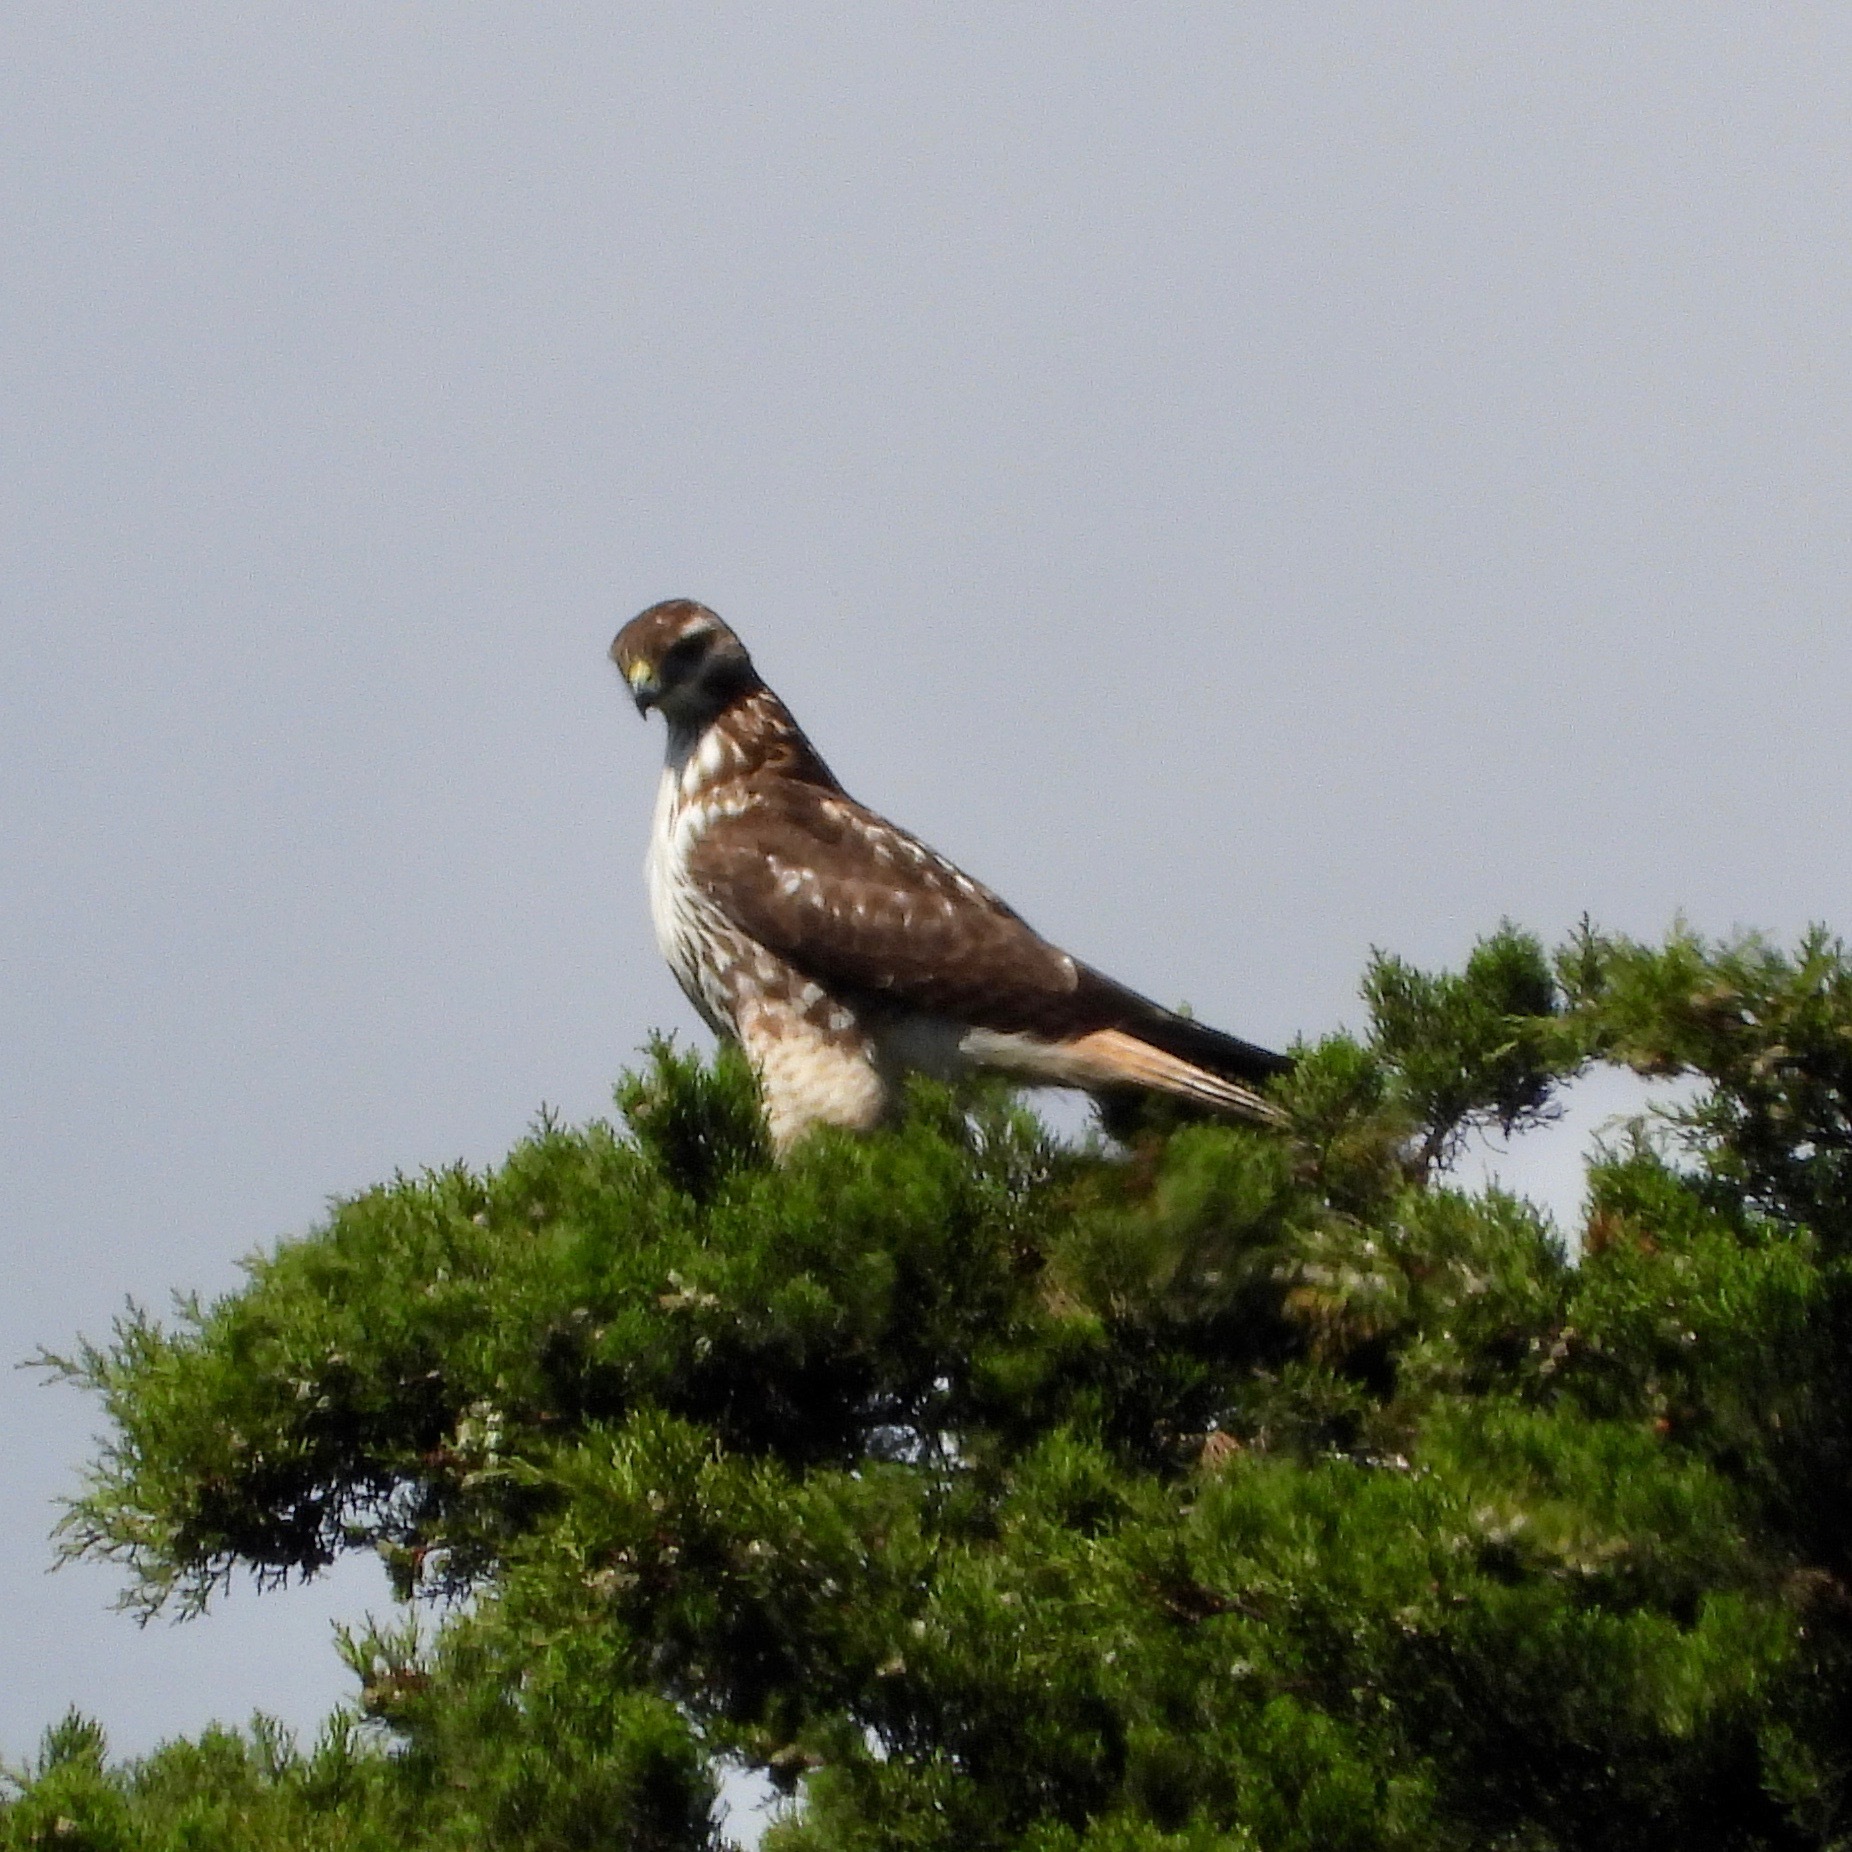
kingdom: Animalia
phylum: Chordata
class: Aves
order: Accipitriformes
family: Accipitridae
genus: Buteo
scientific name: Buteo jamaicensis
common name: Red-tailed hawk
